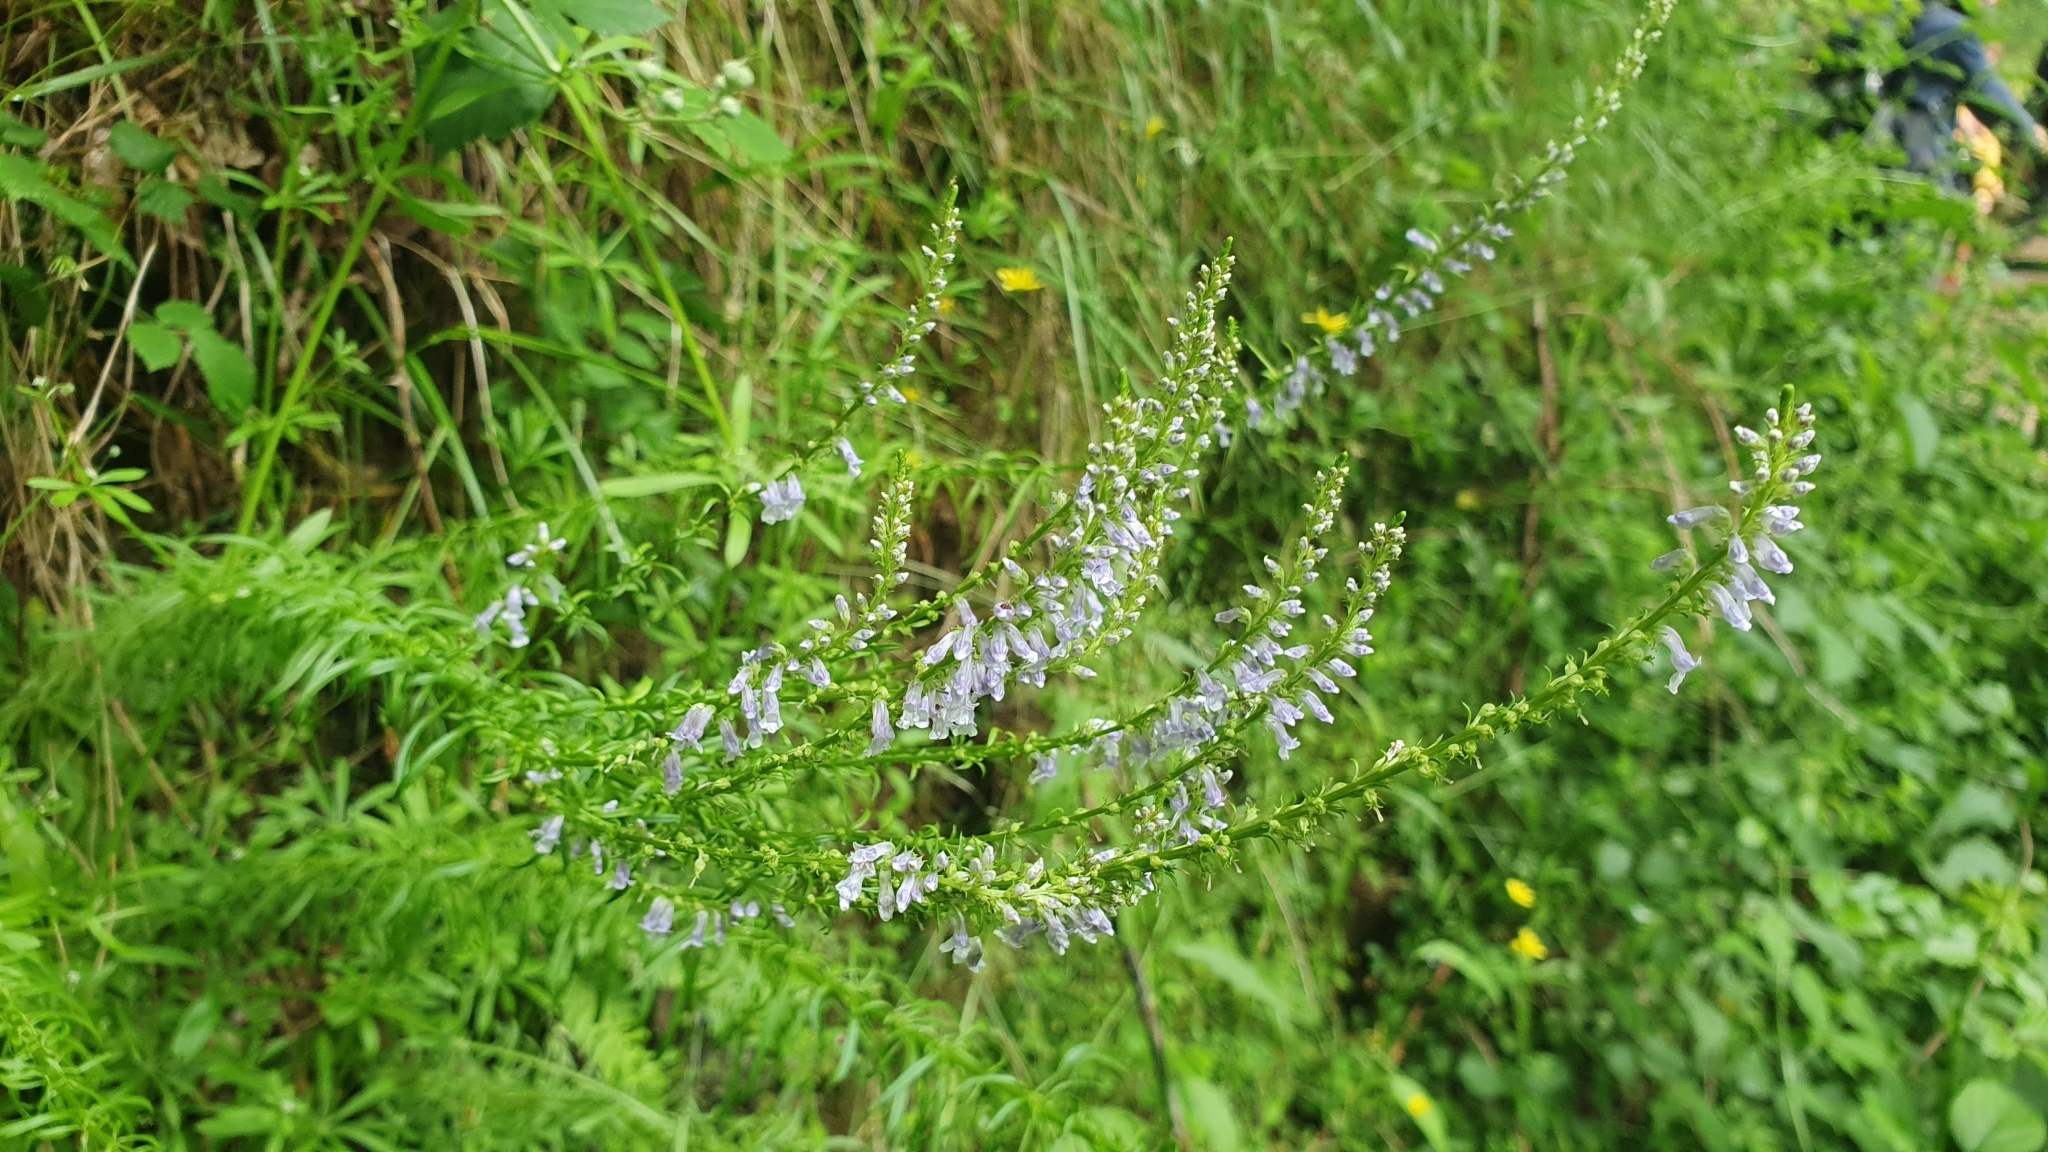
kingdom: Plantae
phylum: Tracheophyta
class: Magnoliopsida
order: Lamiales
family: Plantaginaceae
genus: Anarrhinum
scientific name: Anarrhinum bellidifolium
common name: Daisy-leaved toadflax
